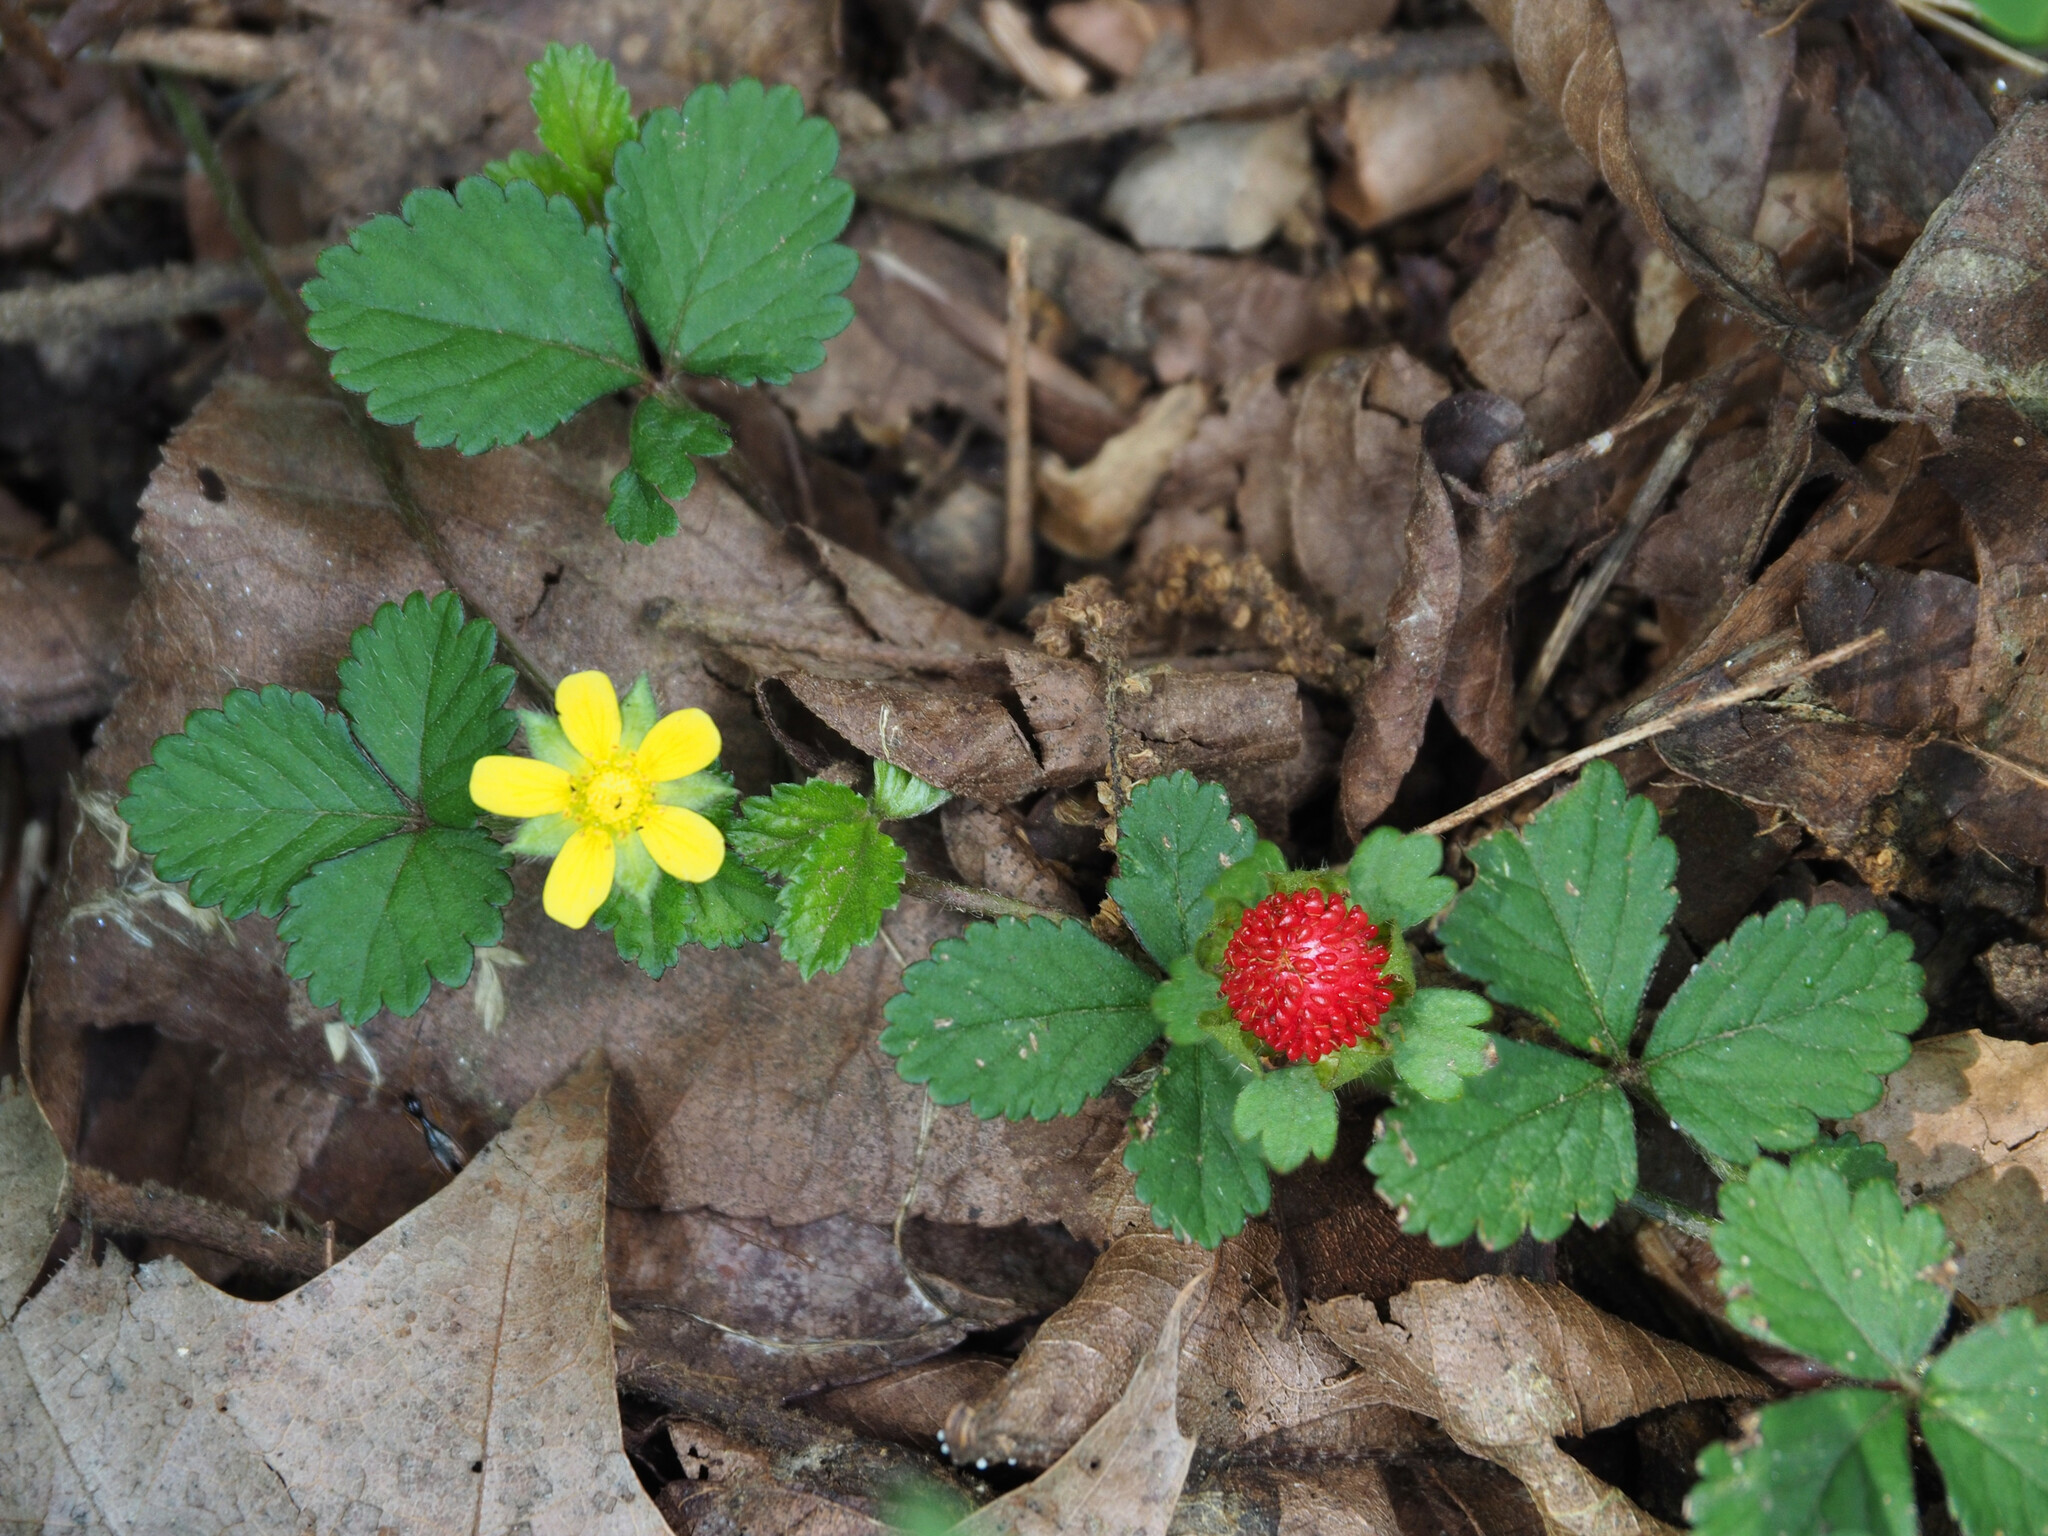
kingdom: Plantae
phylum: Tracheophyta
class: Magnoliopsida
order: Rosales
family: Rosaceae
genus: Potentilla
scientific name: Potentilla indica
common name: Yellow-flowered strawberry
